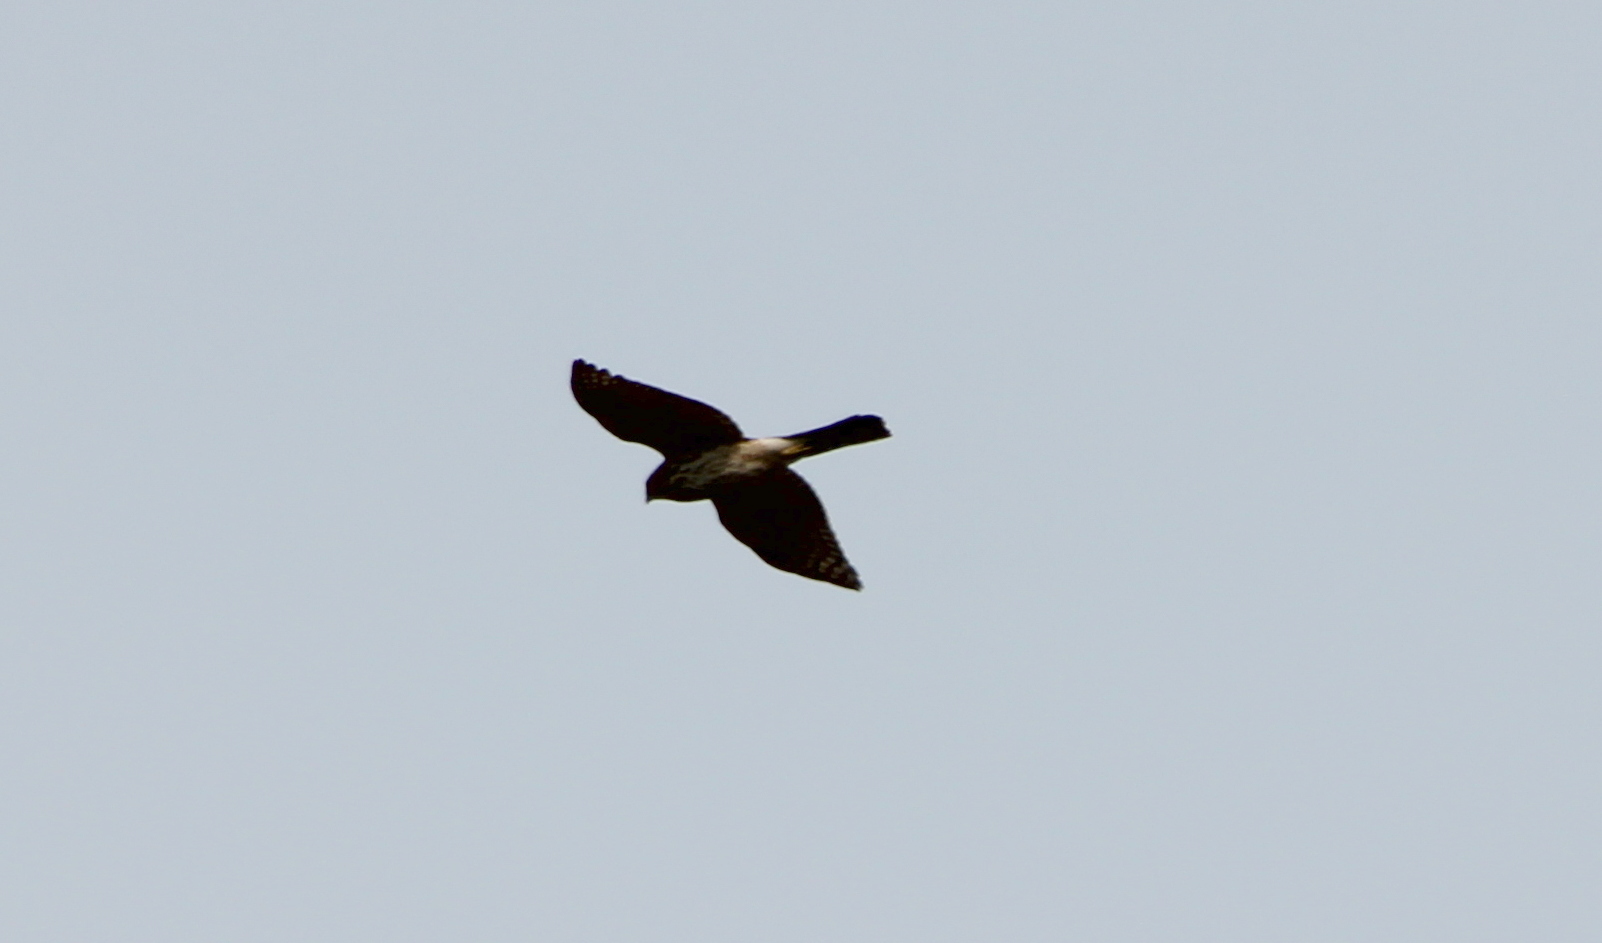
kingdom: Animalia
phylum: Chordata
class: Aves
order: Accipitriformes
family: Accipitridae
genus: Accipiter
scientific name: Accipiter cooperii
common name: Cooper's hawk
